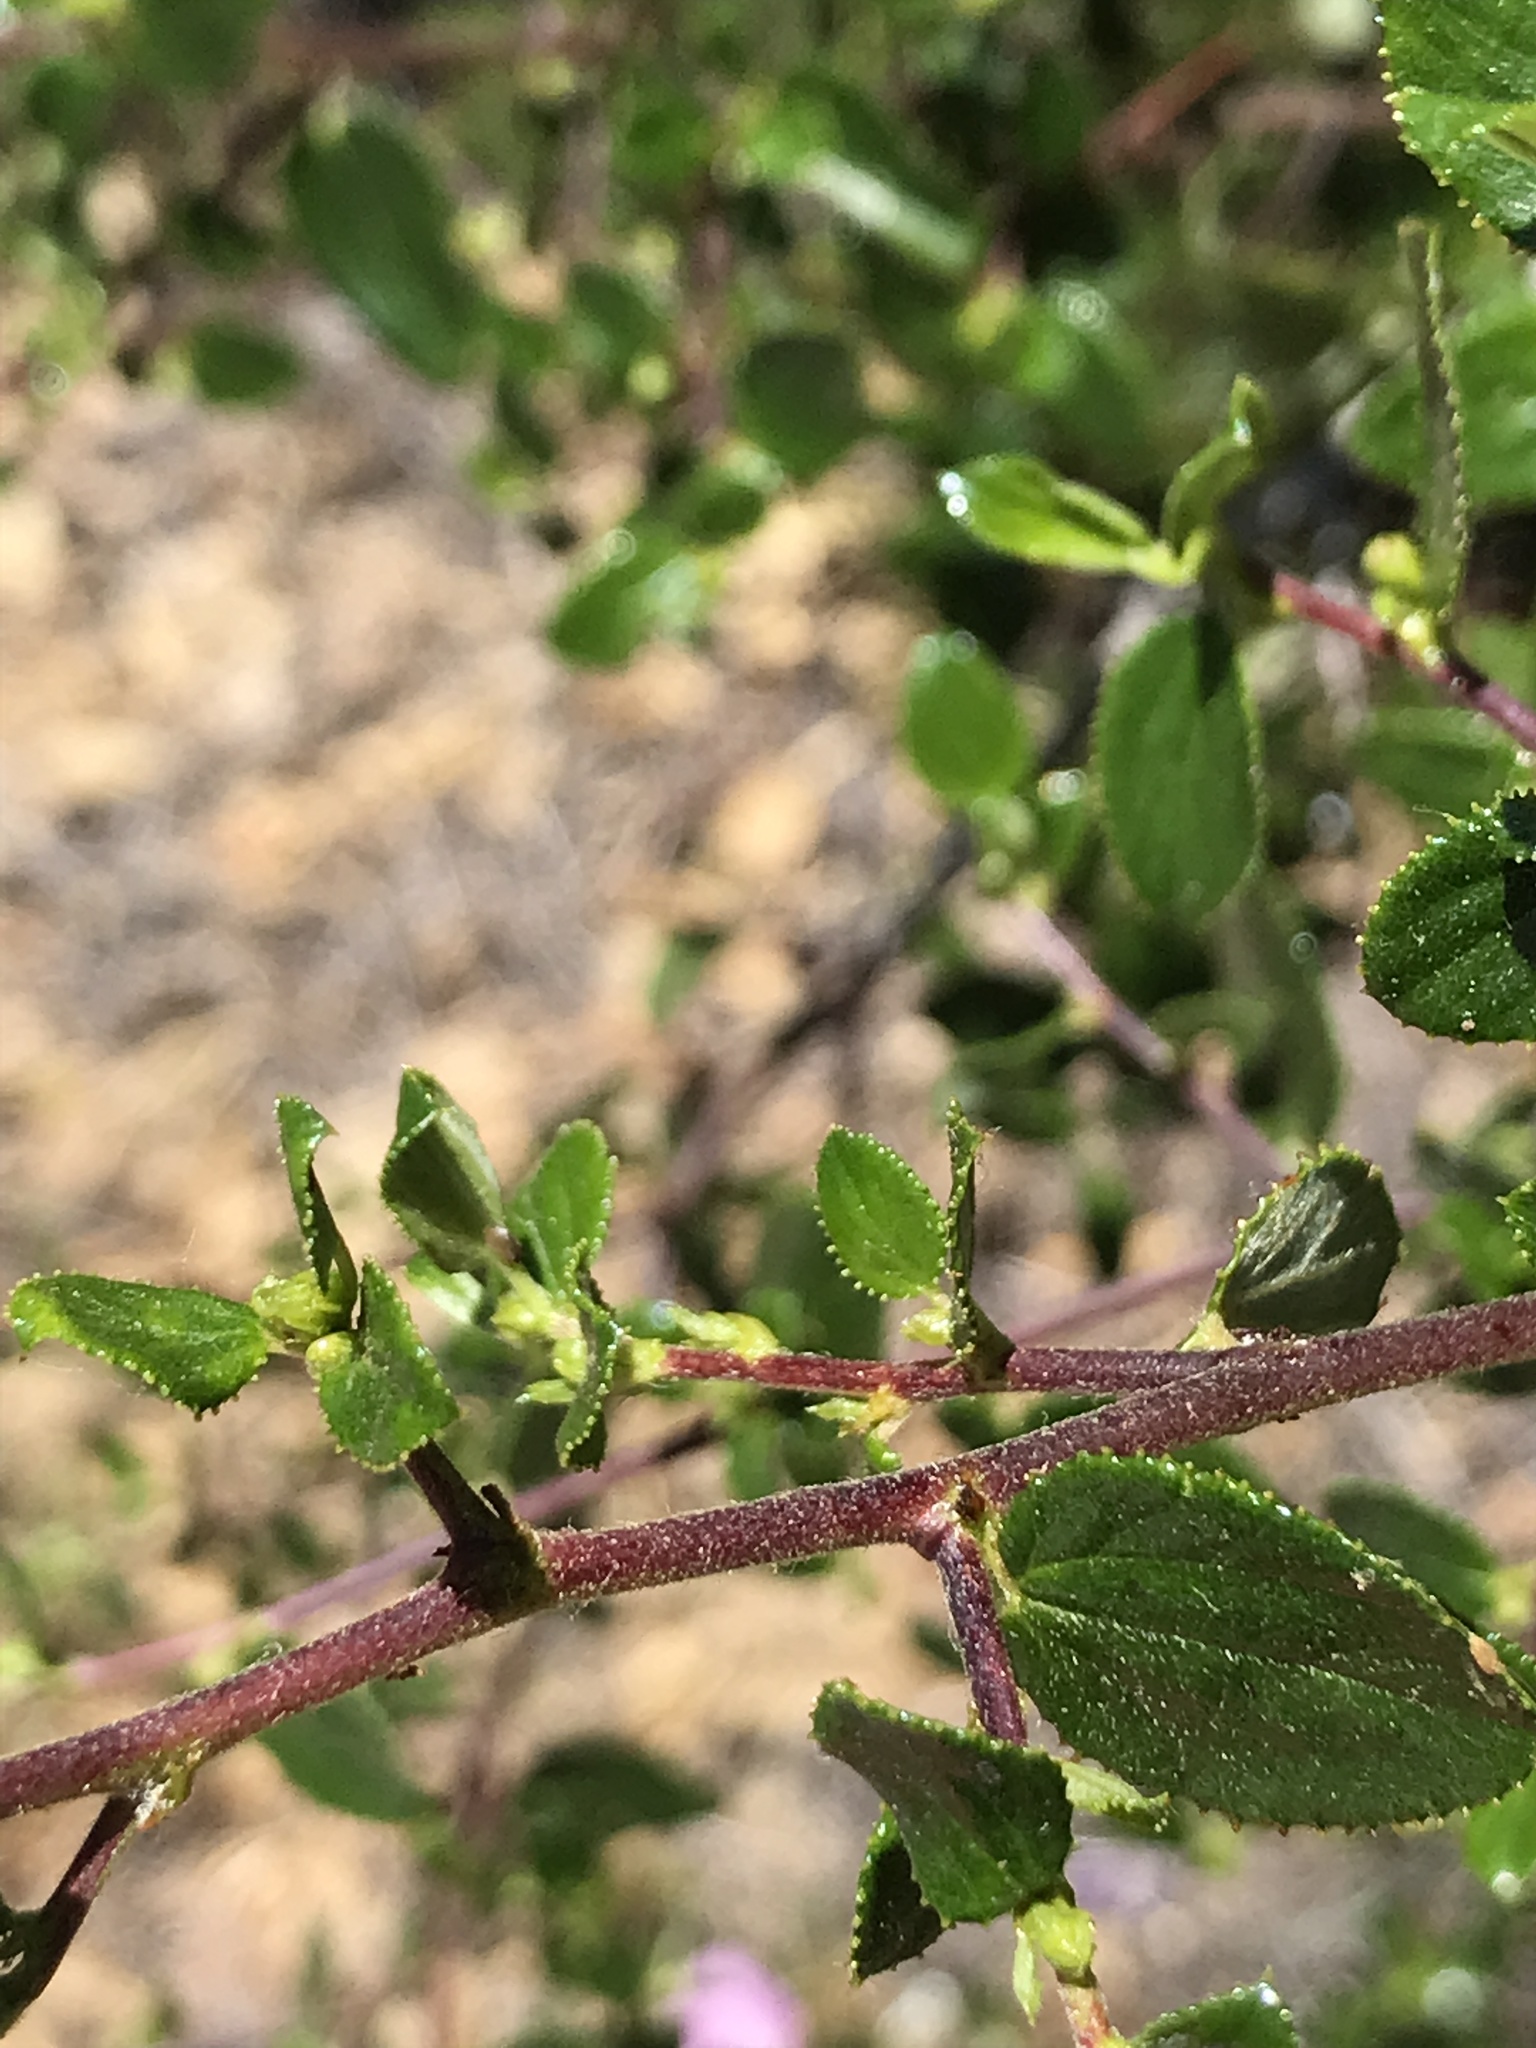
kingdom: Plantae
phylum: Tracheophyta
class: Magnoliopsida
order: Rosales
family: Rhamnaceae
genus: Ceanothus
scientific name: Ceanothus oliganthus
